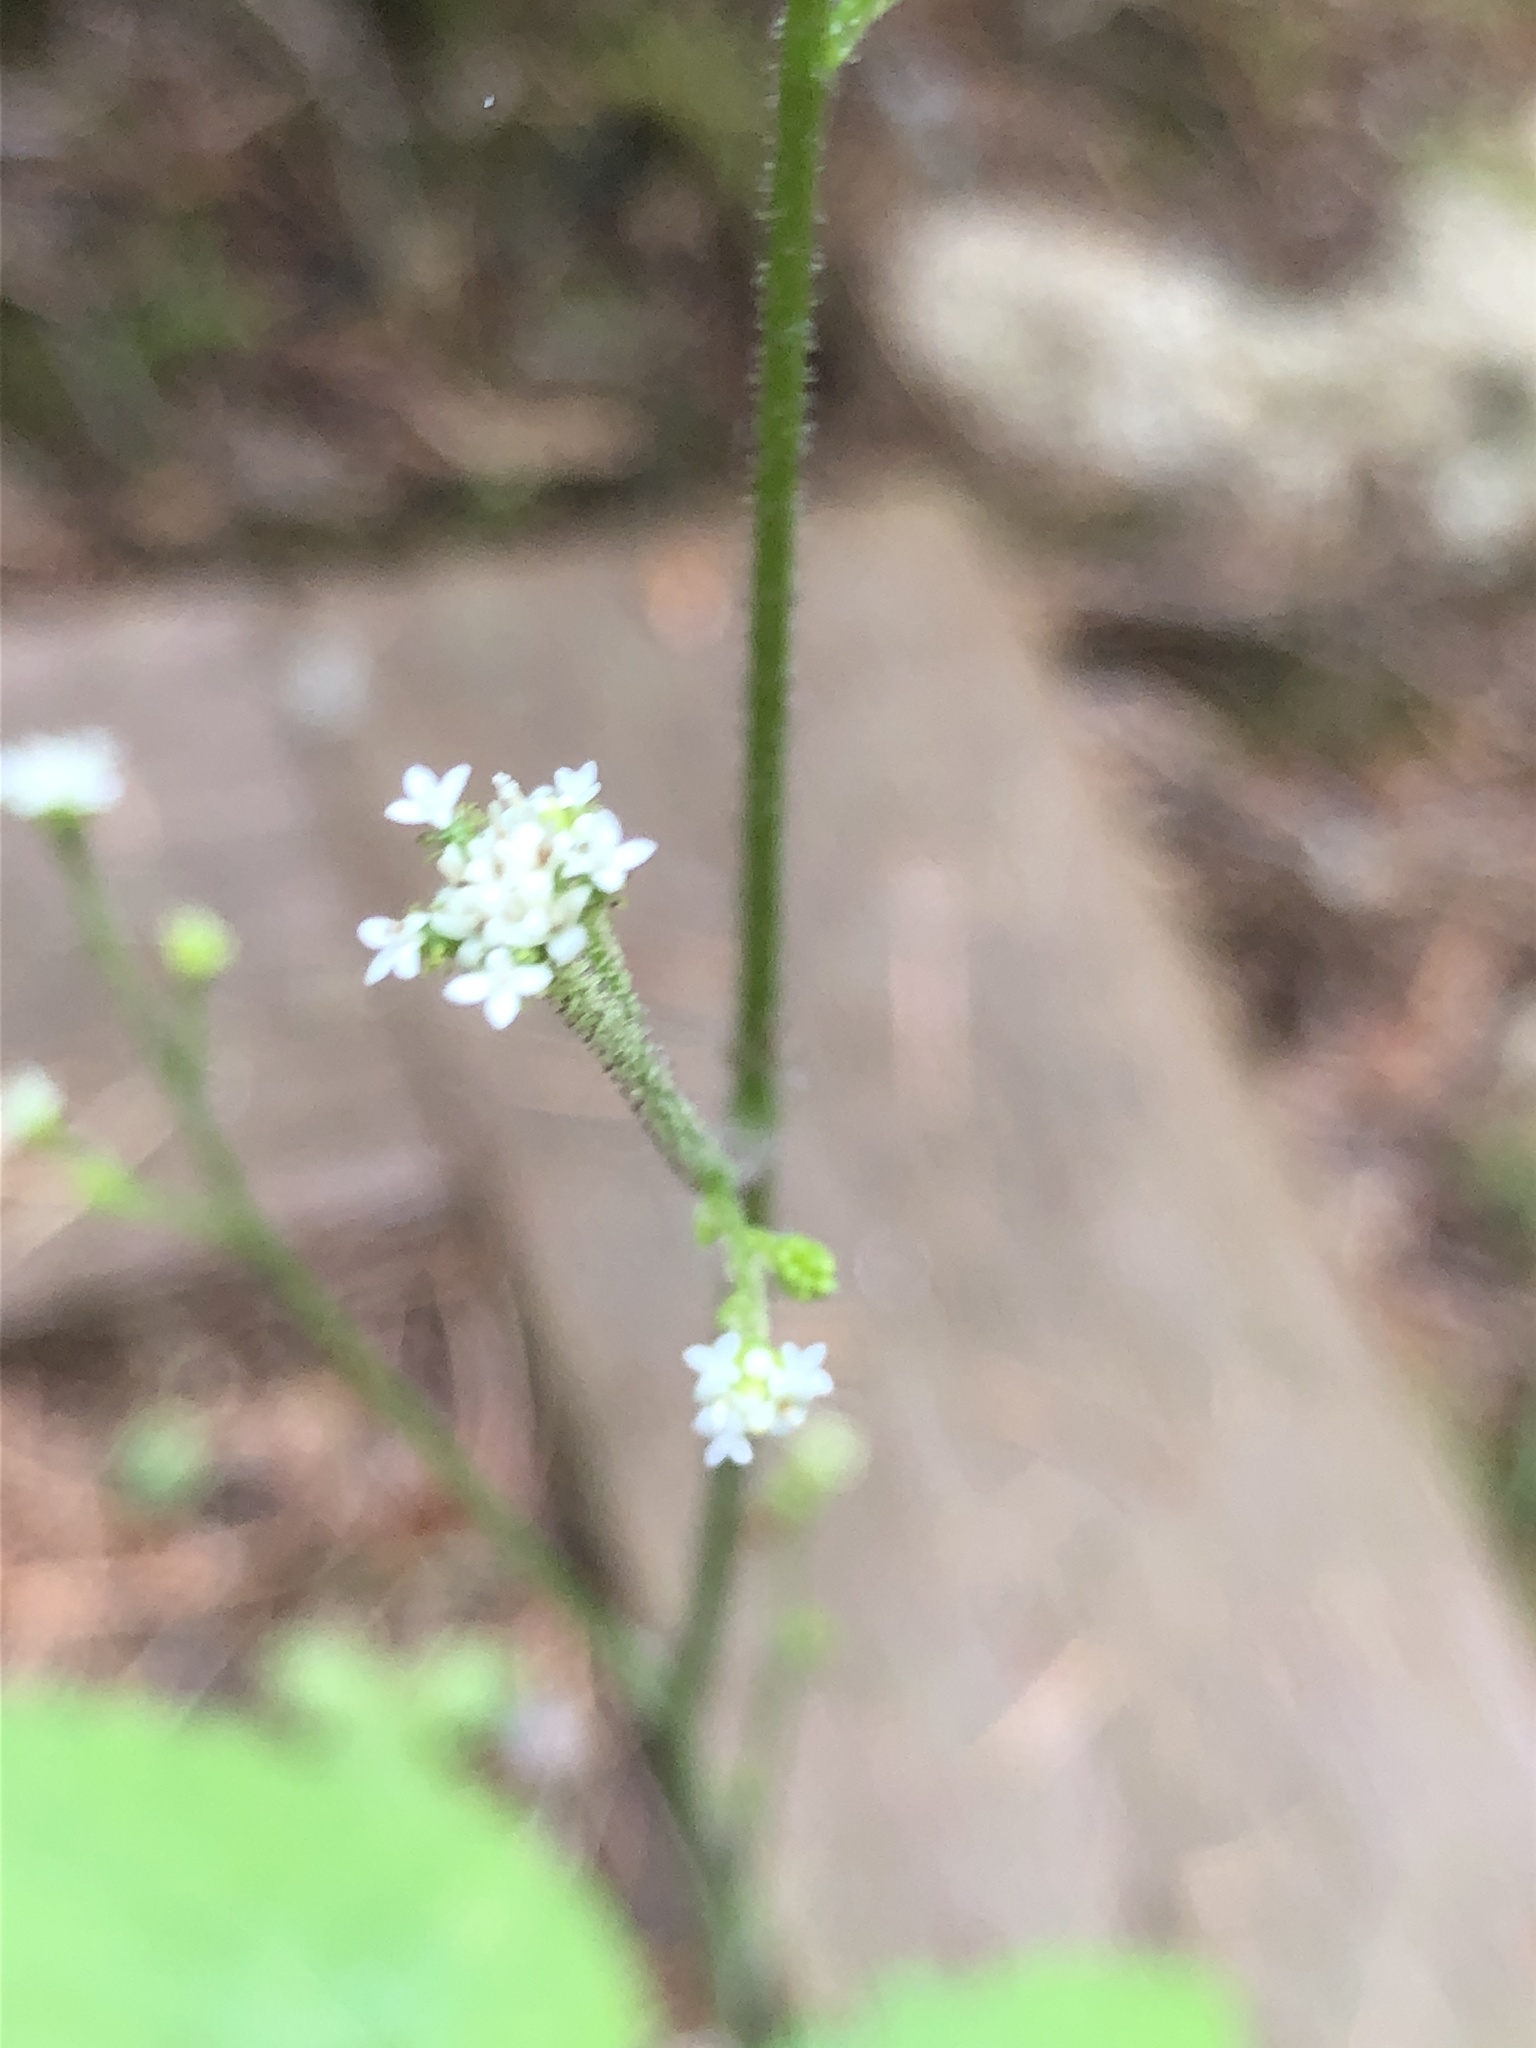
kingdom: Plantae
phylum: Tracheophyta
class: Magnoliopsida
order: Asterales
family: Asteraceae
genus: Adenocaulon
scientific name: Adenocaulon bicolor
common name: Trailplant
